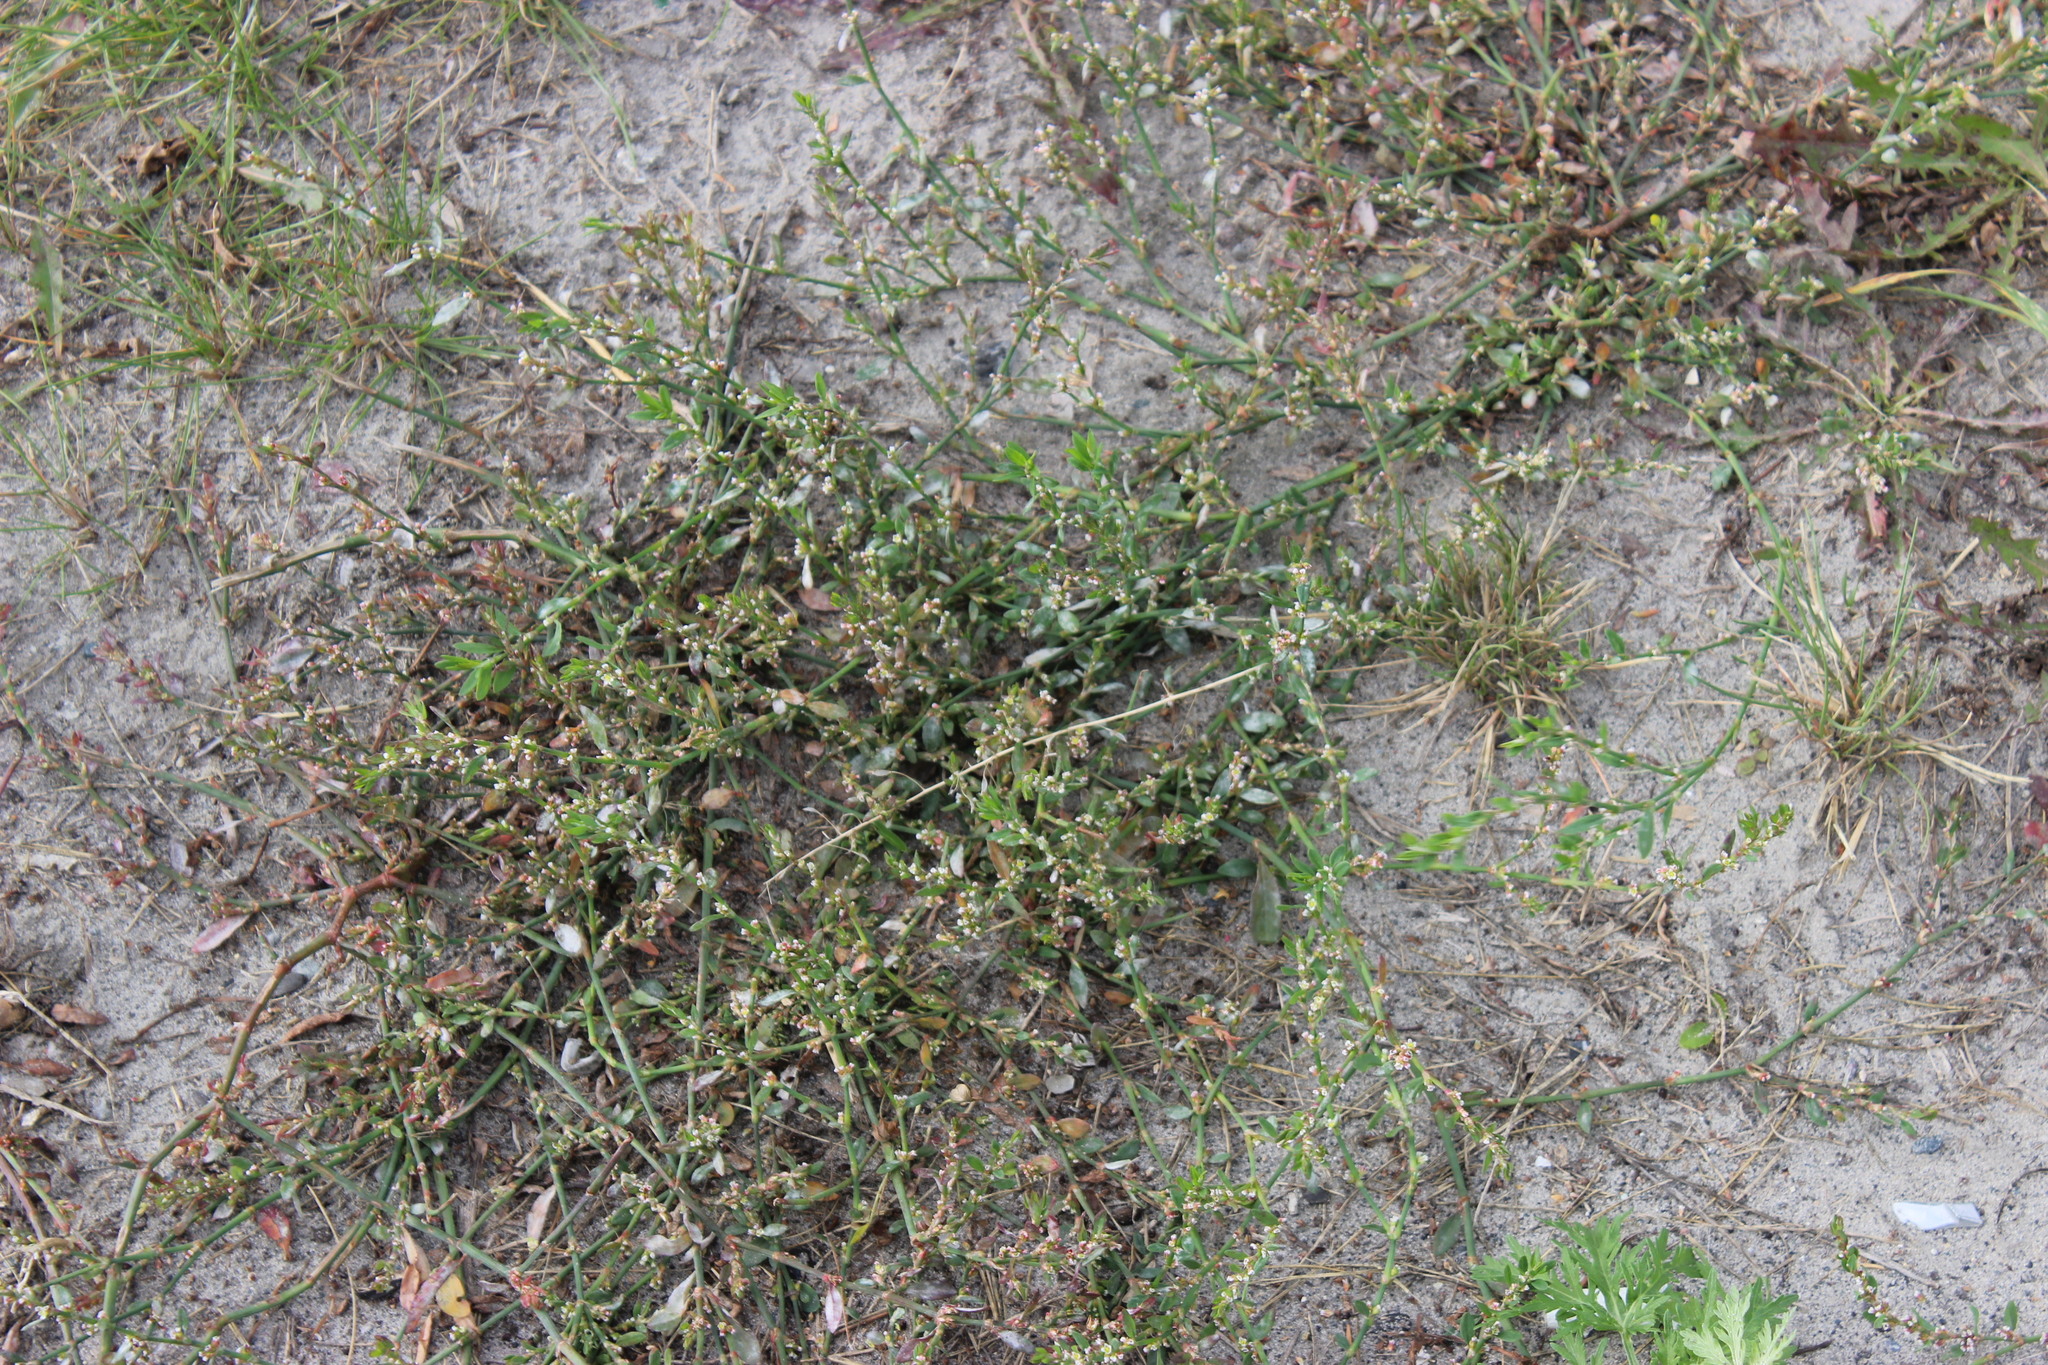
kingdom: Plantae
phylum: Tracheophyta
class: Magnoliopsida
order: Caryophyllales
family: Polygonaceae
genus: Polygonum
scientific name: Polygonum
